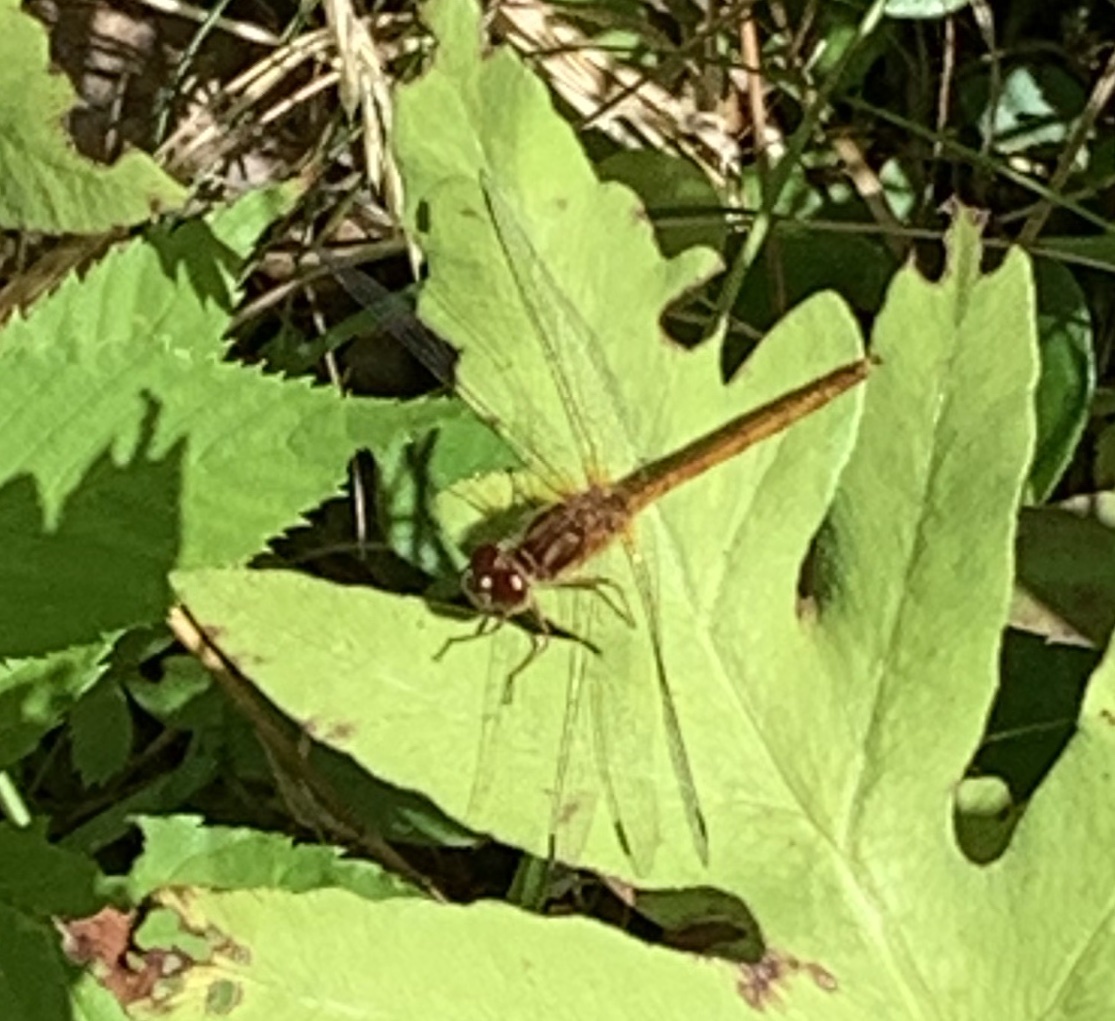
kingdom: Animalia
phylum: Arthropoda
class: Insecta
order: Odonata
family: Libellulidae
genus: Sympetrum
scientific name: Sympetrum vicinum
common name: Autumn meadowhawk
